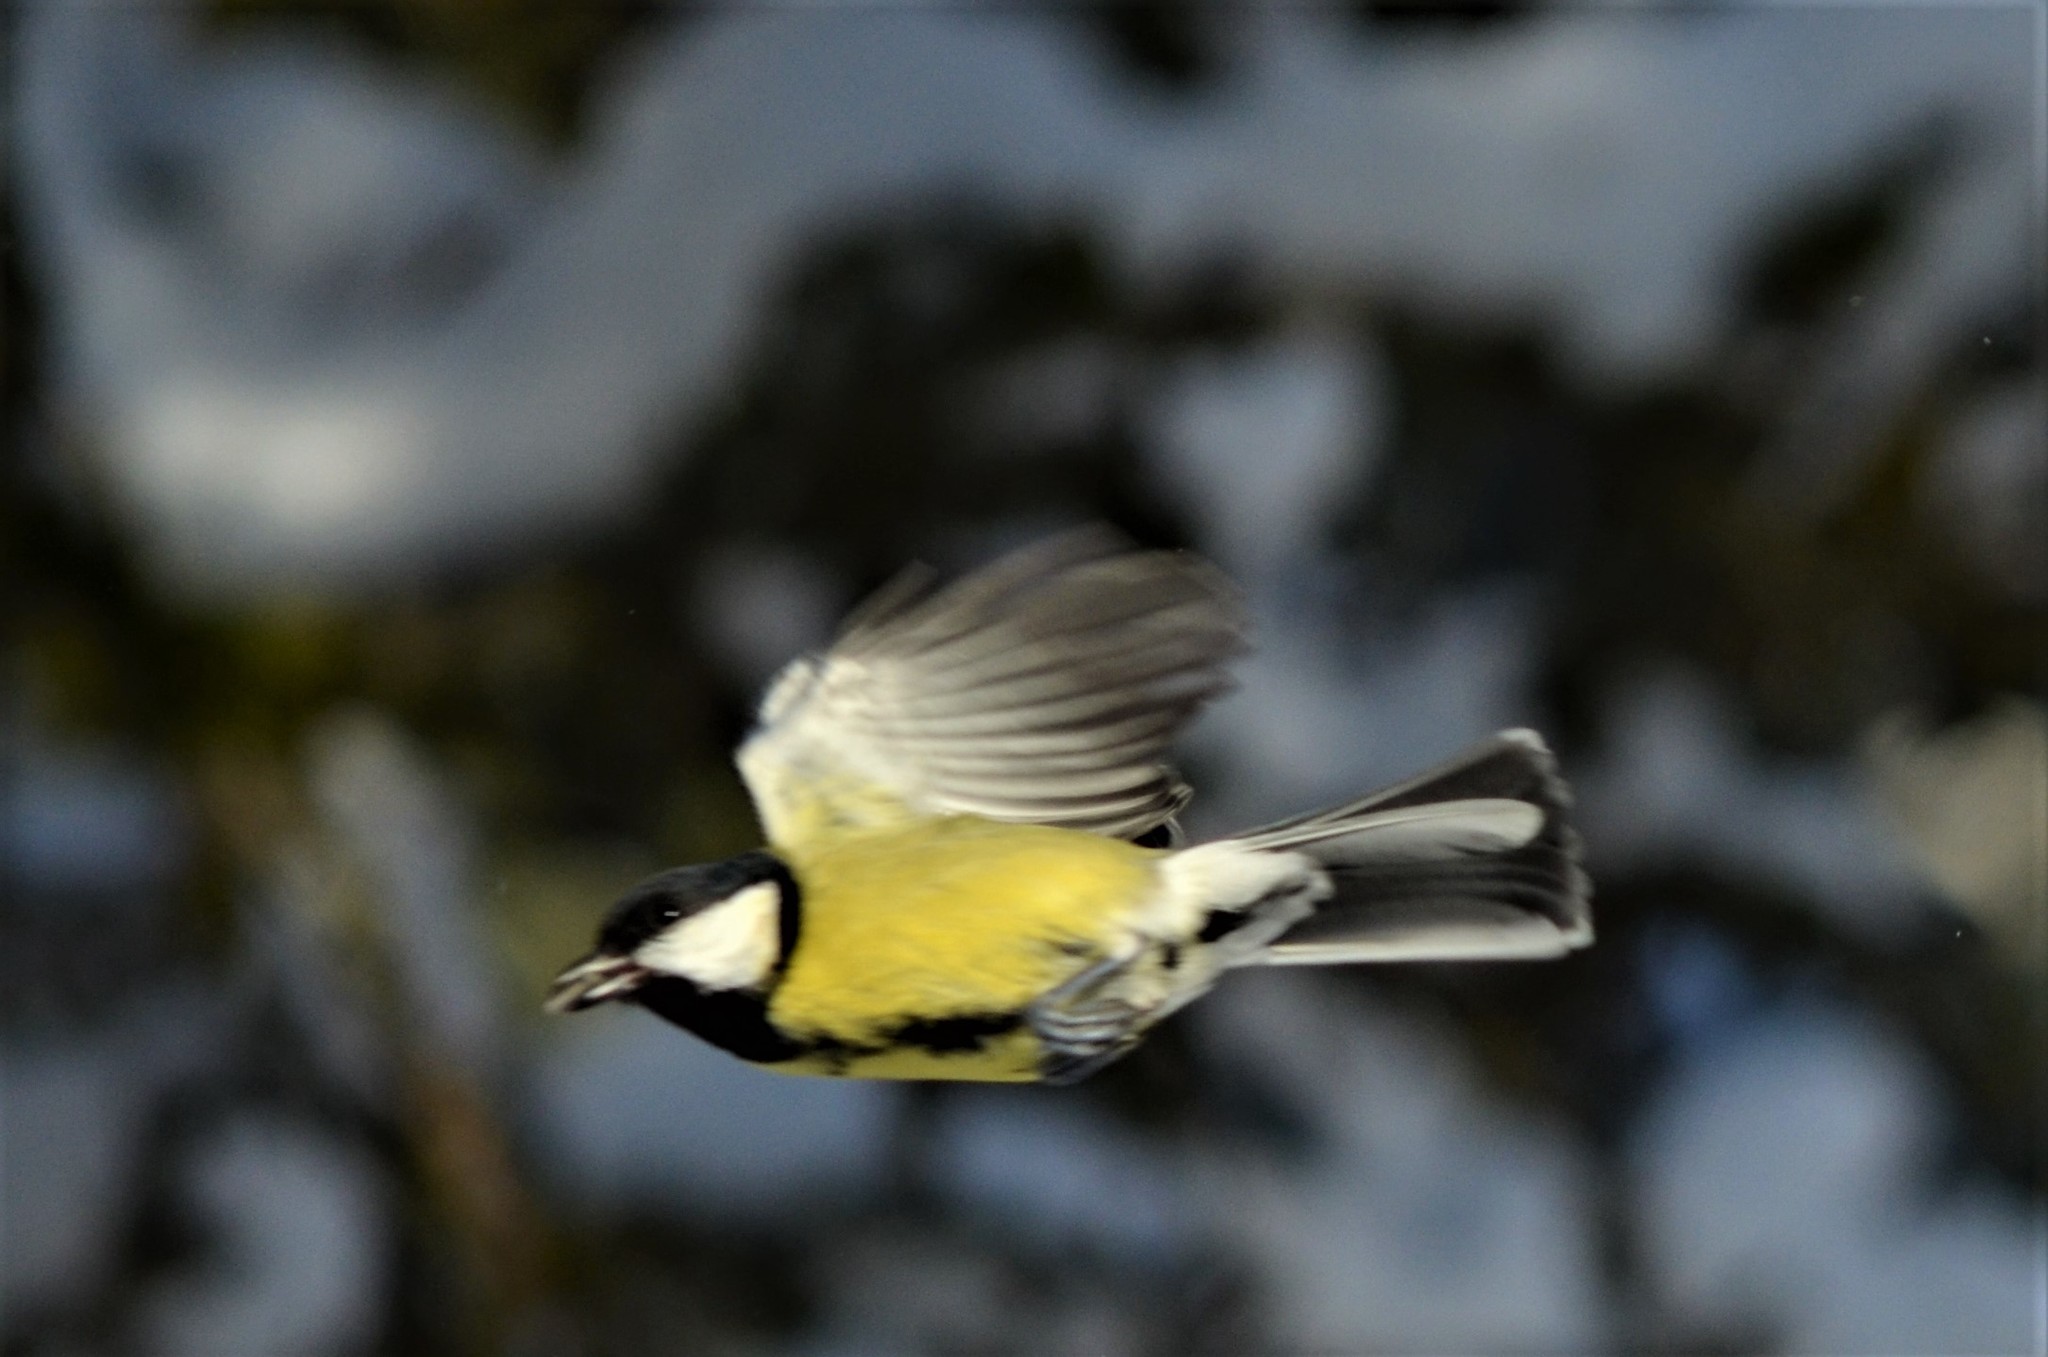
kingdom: Animalia
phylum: Chordata
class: Aves
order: Passeriformes
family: Paridae
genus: Parus
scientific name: Parus major
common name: Great tit
